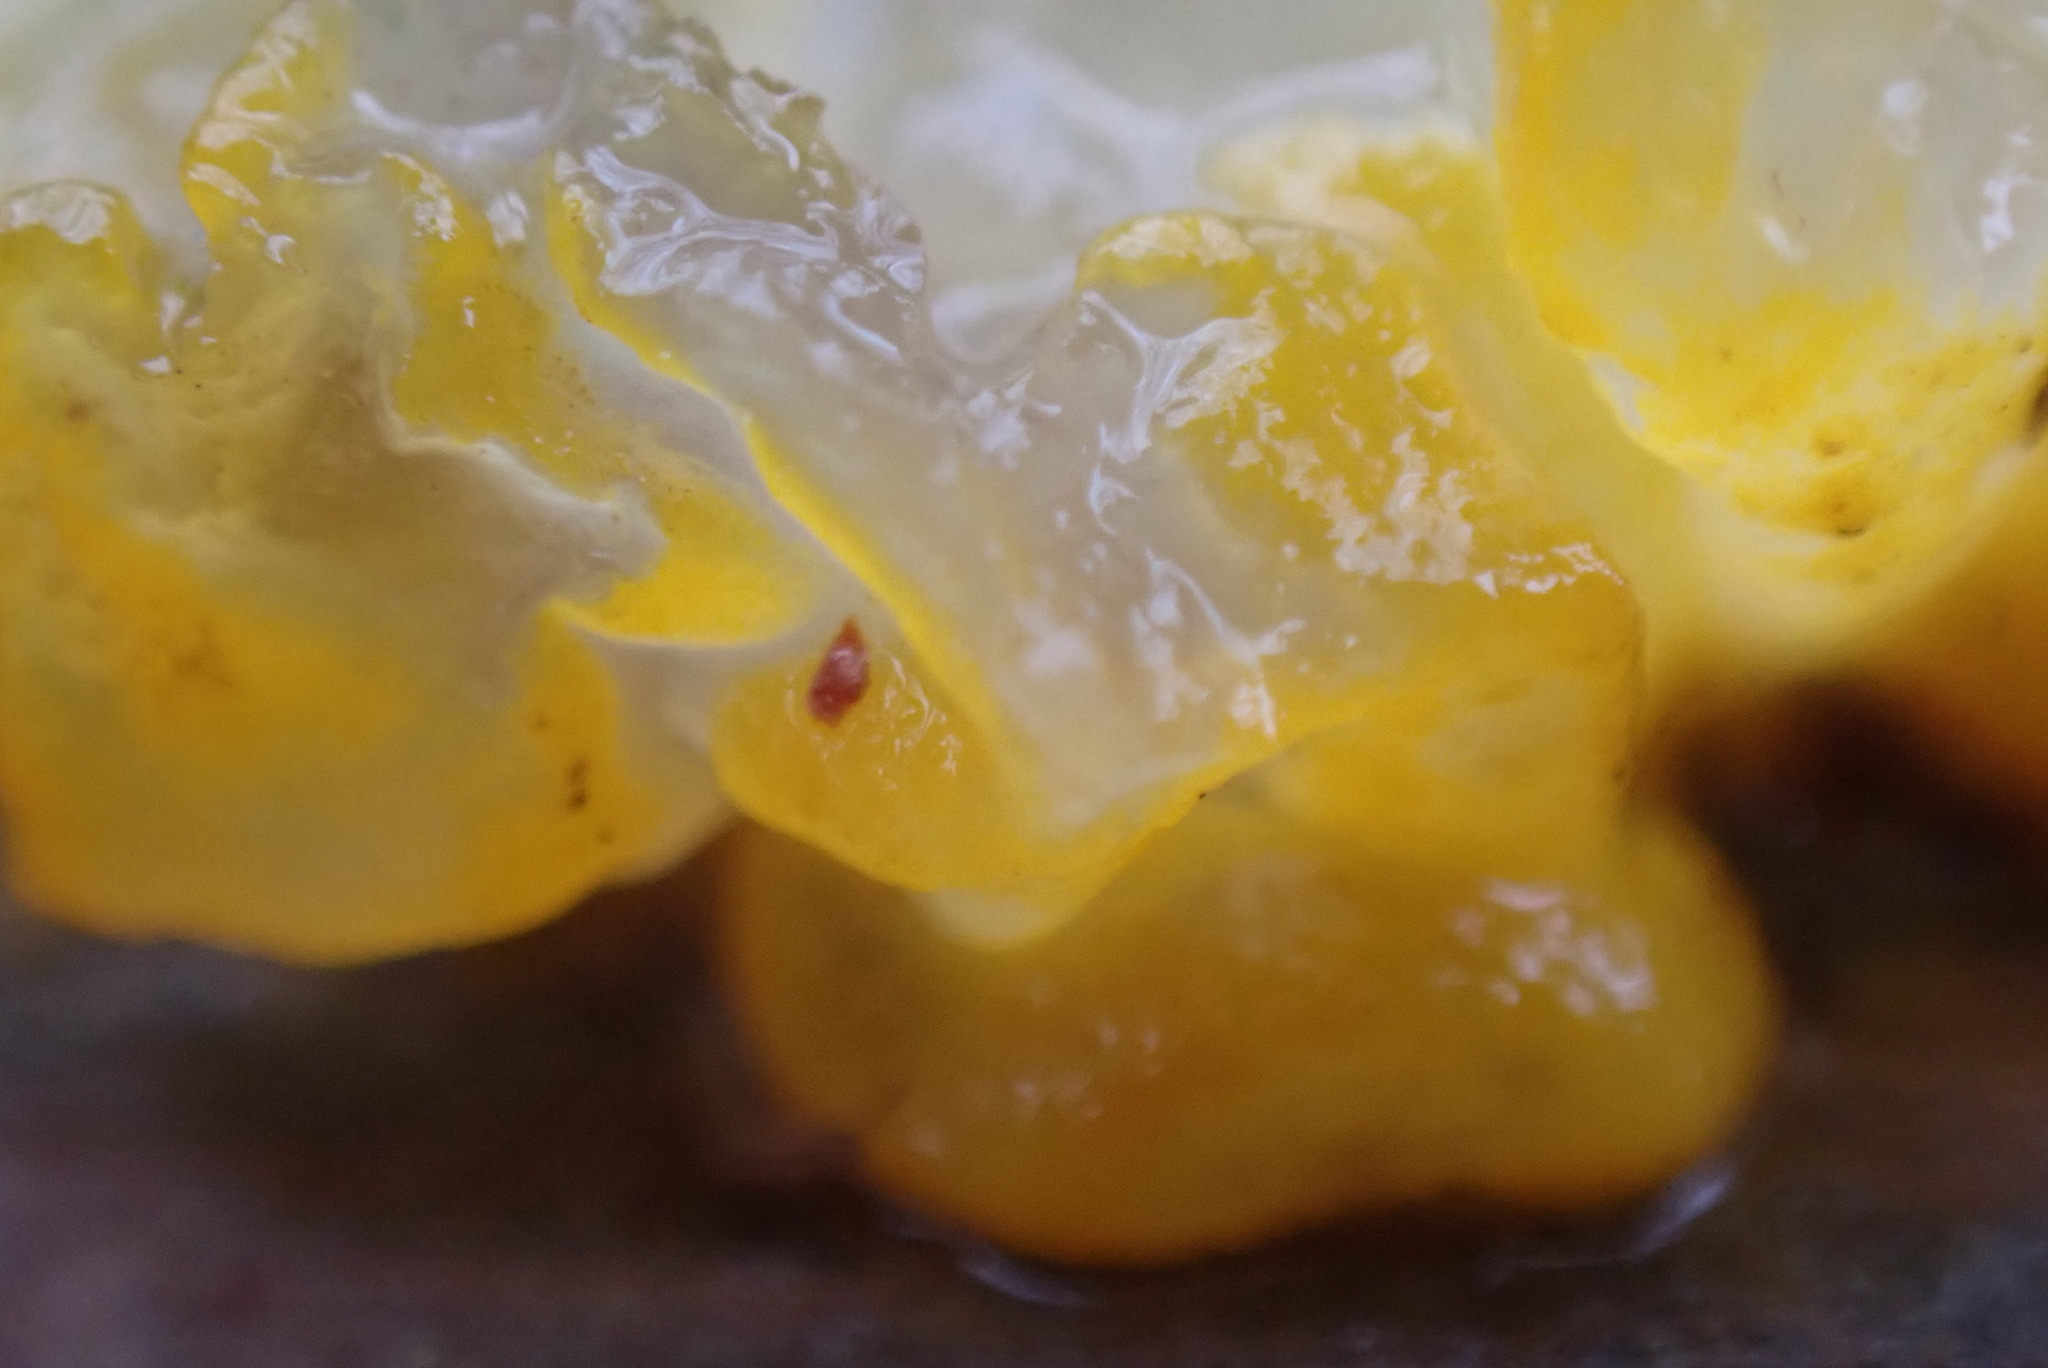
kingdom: Fungi
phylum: Basidiomycota
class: Tremellomycetes
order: Tremellales
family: Tremellaceae
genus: Tremella
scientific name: Tremella mesenterica
